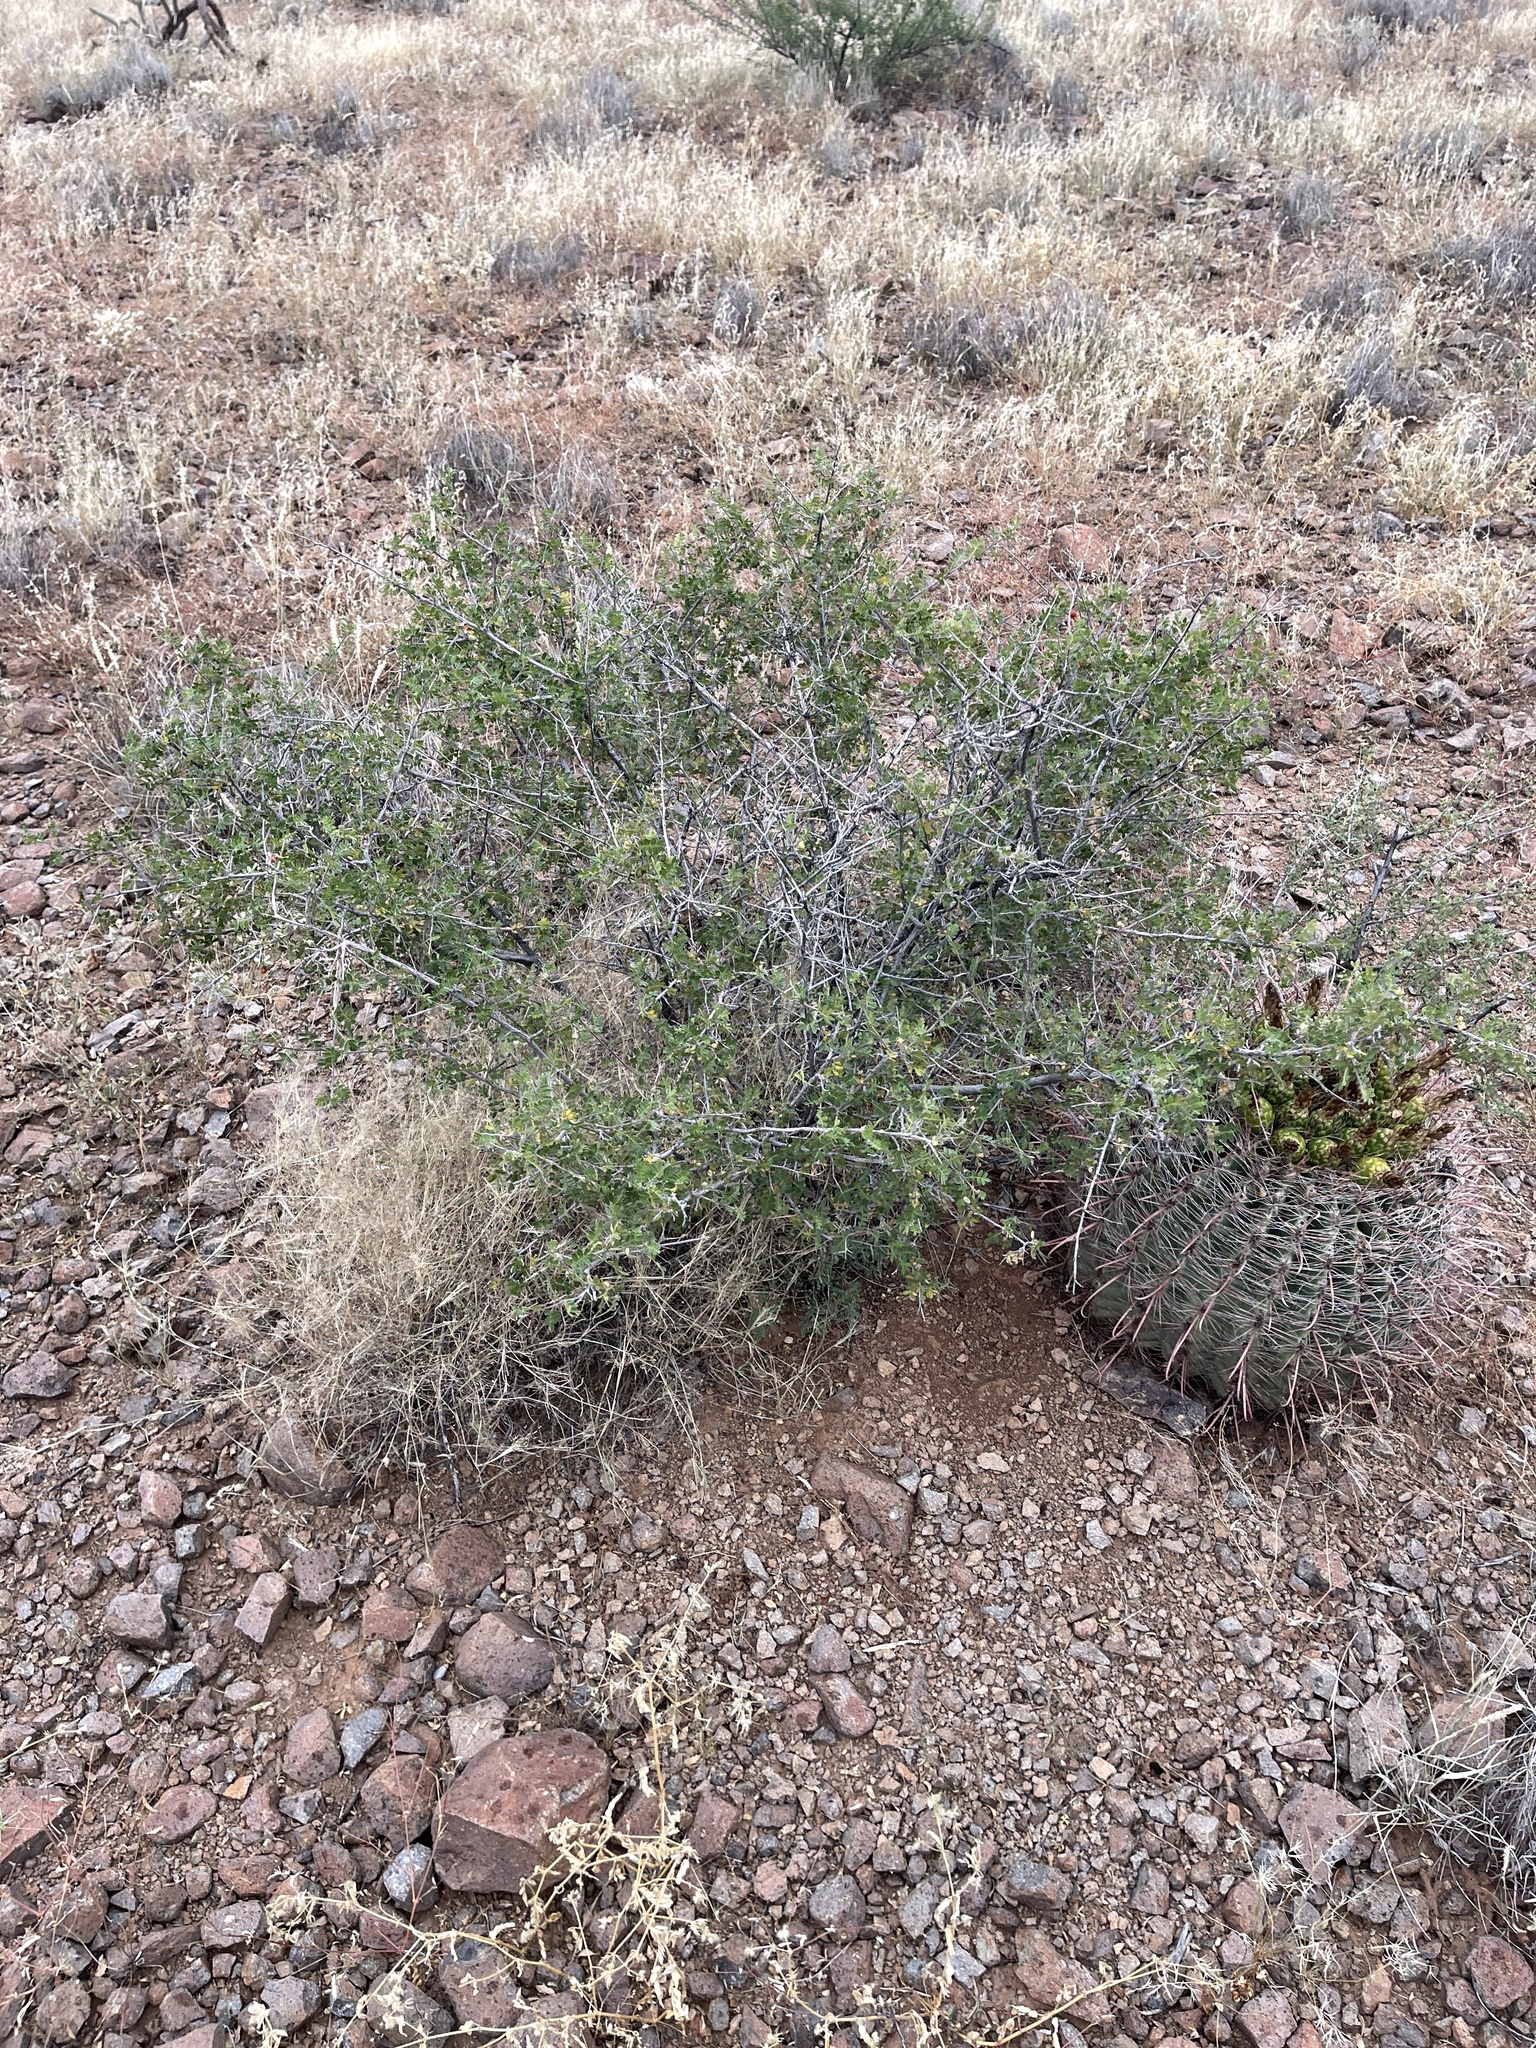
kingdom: Plantae
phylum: Tracheophyta
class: Magnoliopsida
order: Sapindales
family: Anacardiaceae
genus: Rhus
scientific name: Rhus microphylla
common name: Desert sumac
